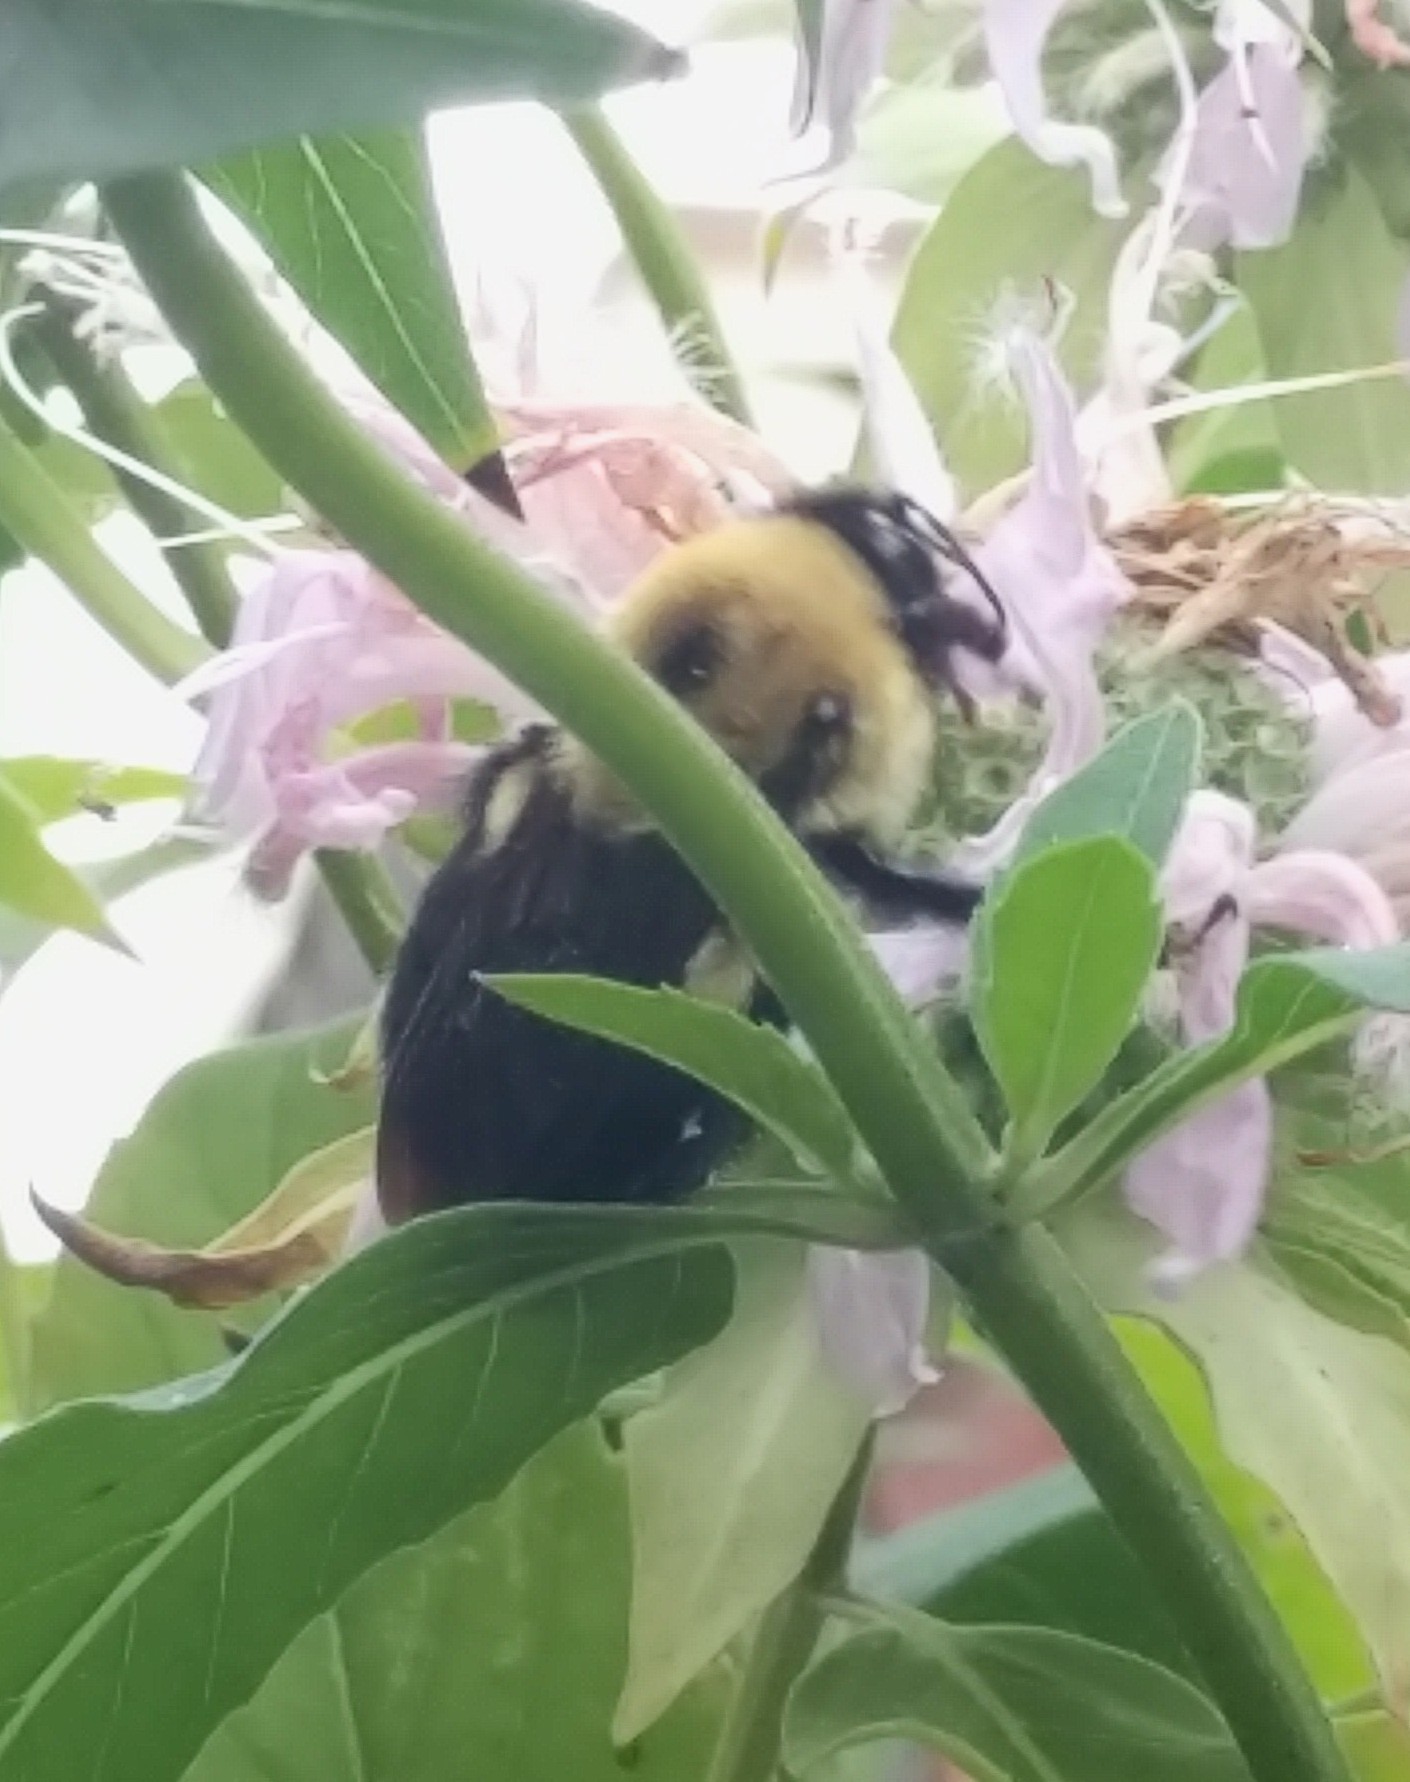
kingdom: Animalia
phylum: Arthropoda
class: Insecta
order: Hymenoptera
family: Apidae
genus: Bombus
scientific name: Bombus griseocollis
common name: Brown-belted bumble bee
